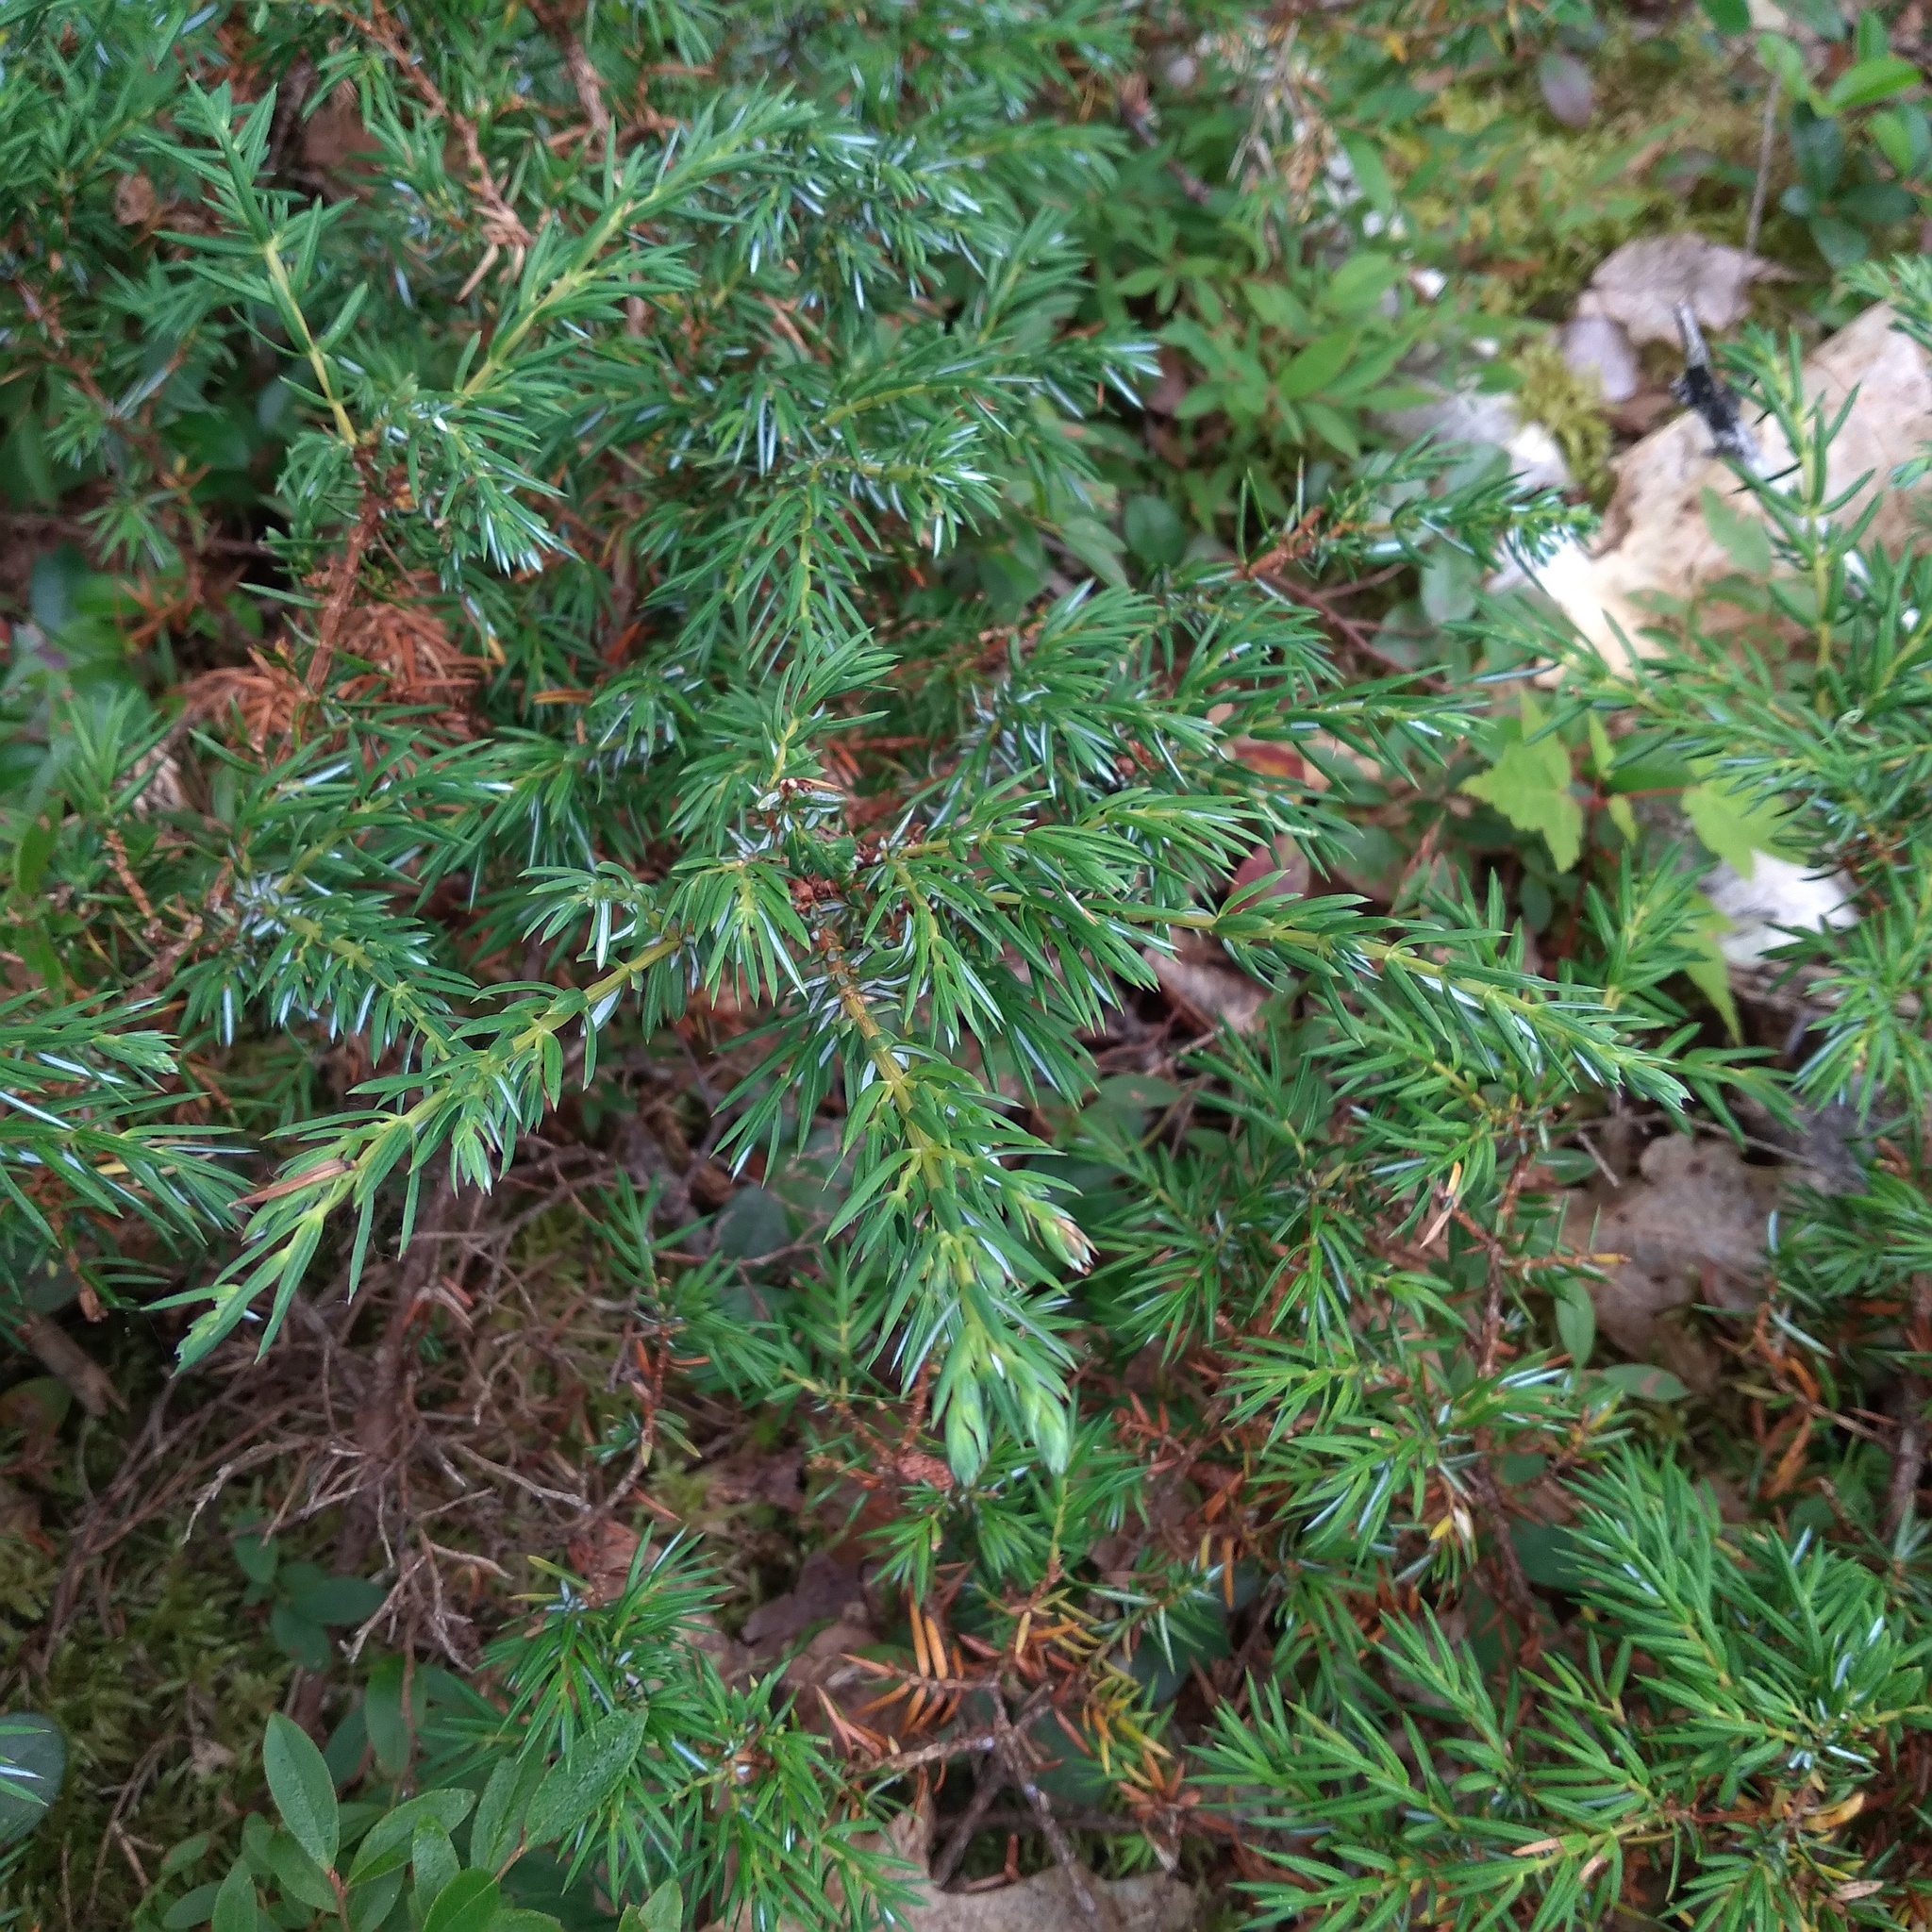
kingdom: Plantae
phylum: Tracheophyta
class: Pinopsida
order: Pinales
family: Cupressaceae
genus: Juniperus
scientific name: Juniperus communis
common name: Common juniper
